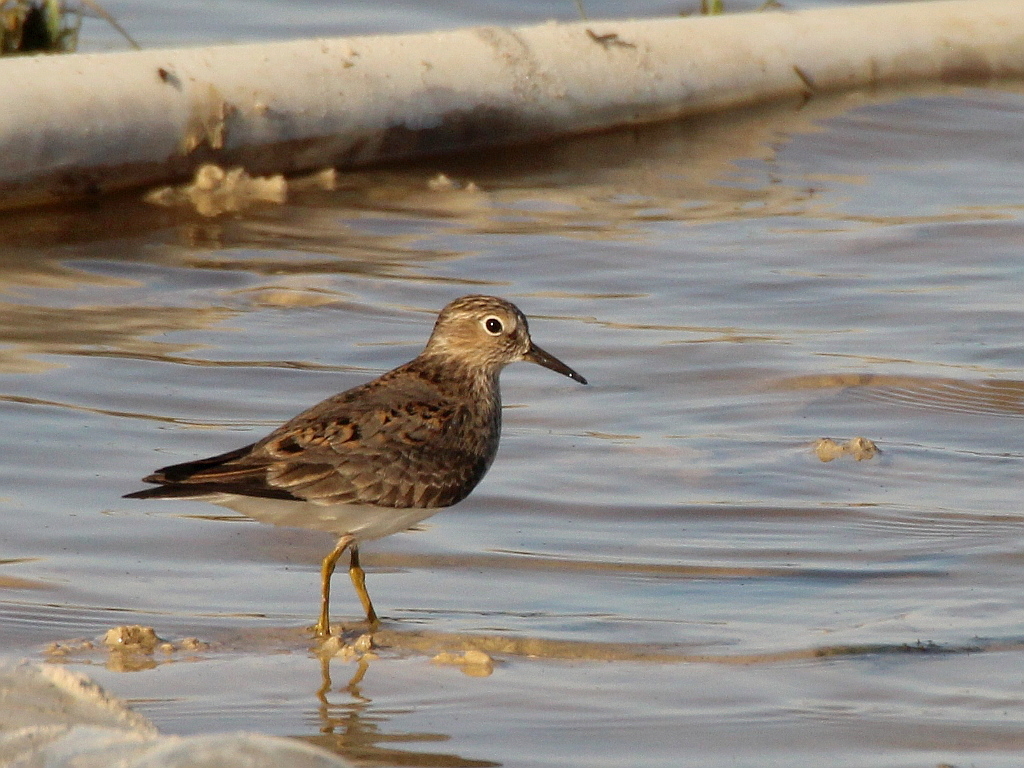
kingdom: Animalia
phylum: Chordata
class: Aves
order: Charadriiformes
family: Scolopacidae
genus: Calidris
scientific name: Calidris temminckii
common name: Temminck's stint
